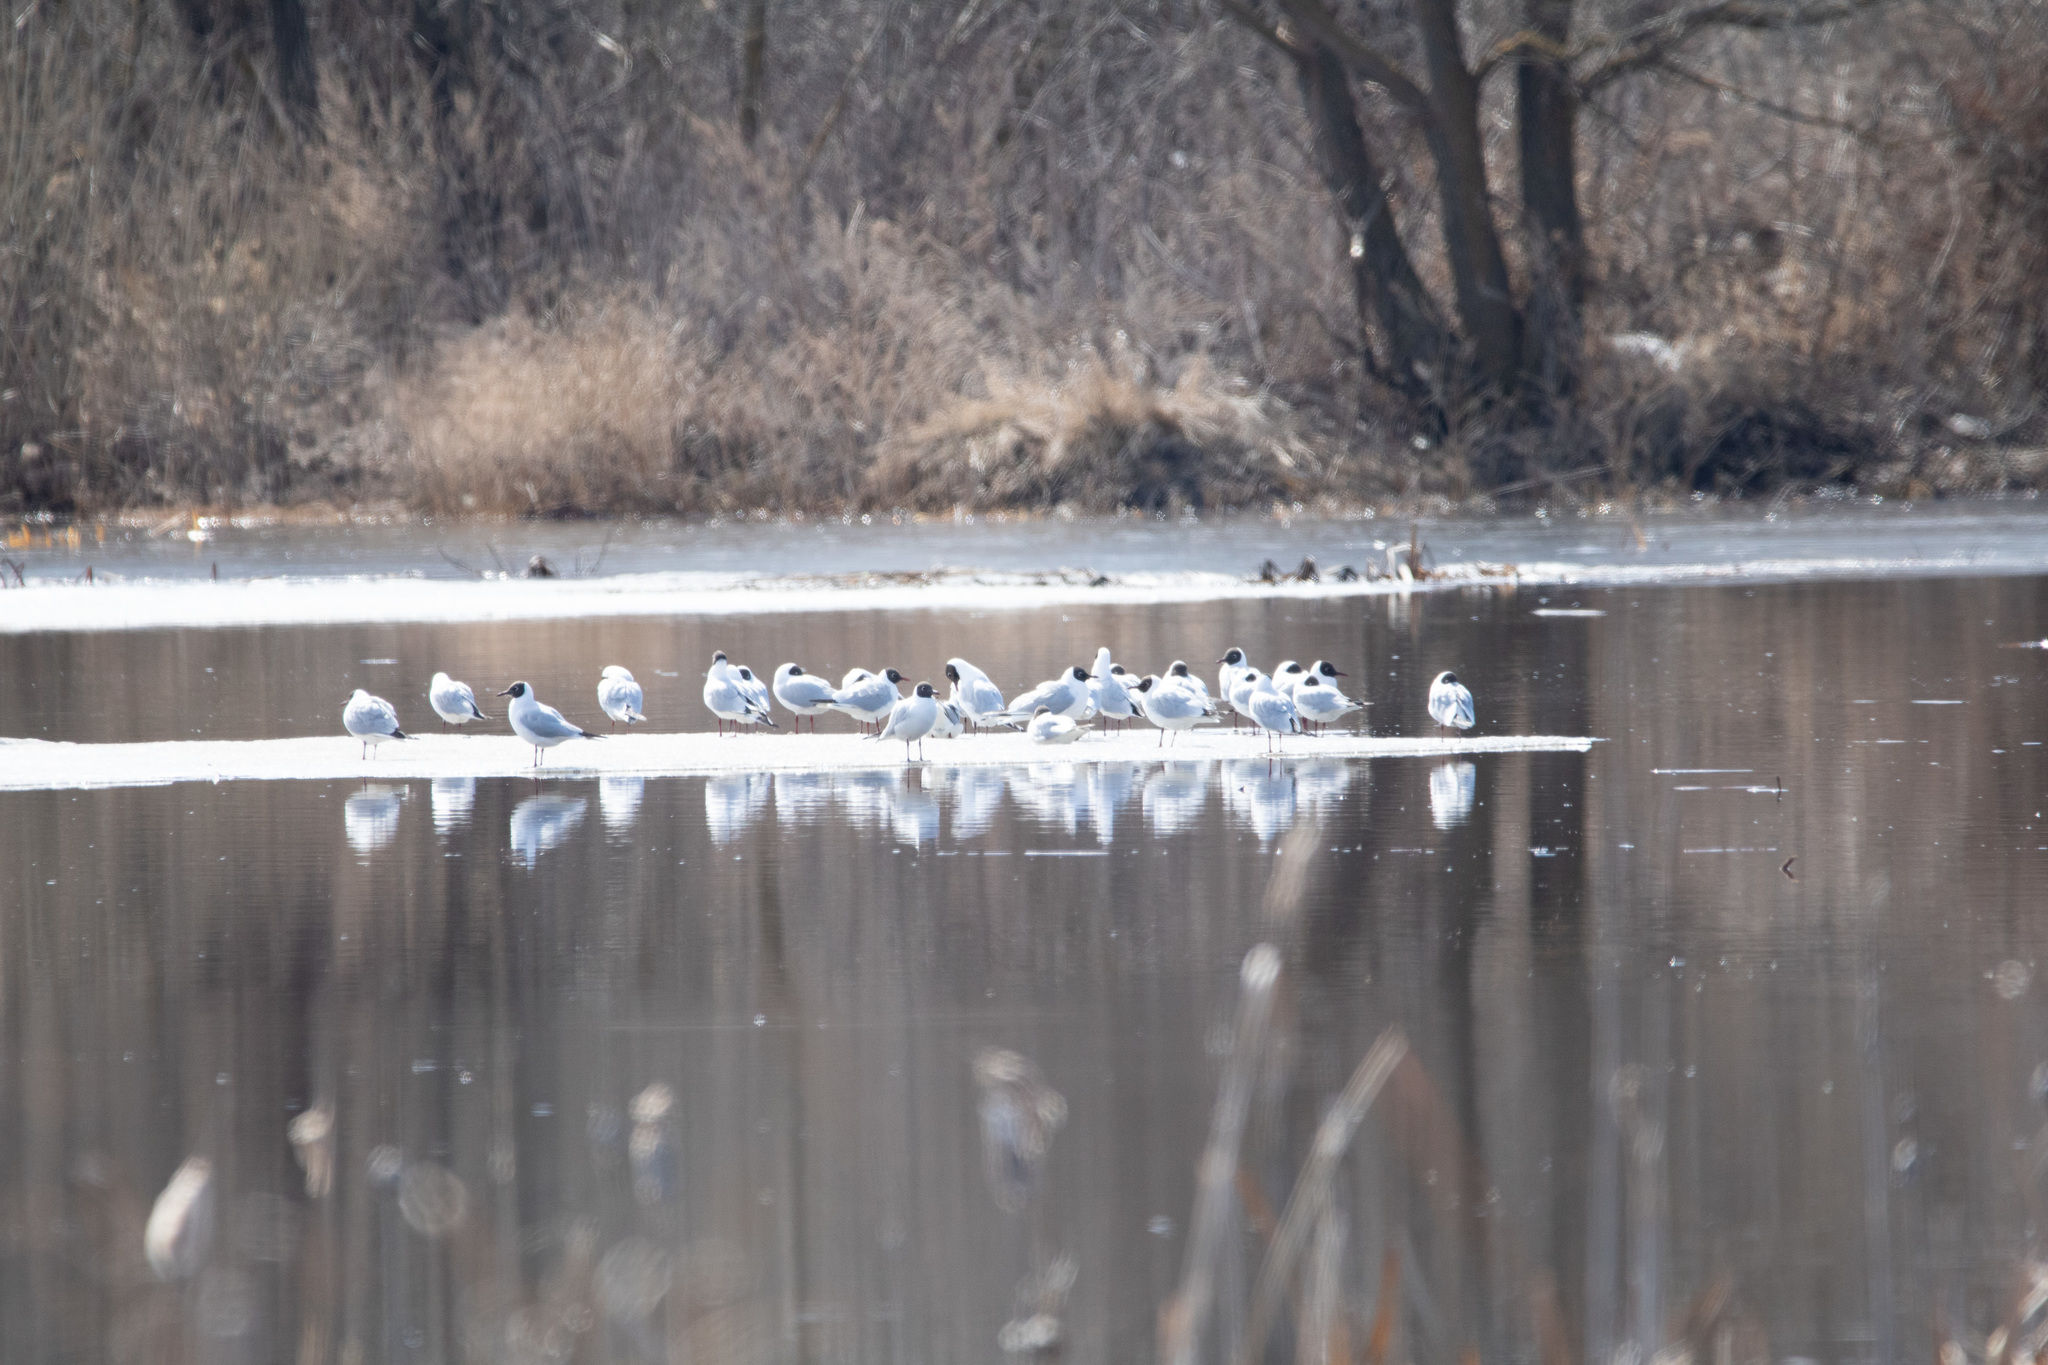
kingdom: Animalia
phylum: Chordata
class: Aves
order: Charadriiformes
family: Laridae
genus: Chroicocephalus
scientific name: Chroicocephalus ridibundus
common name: Black-headed gull
